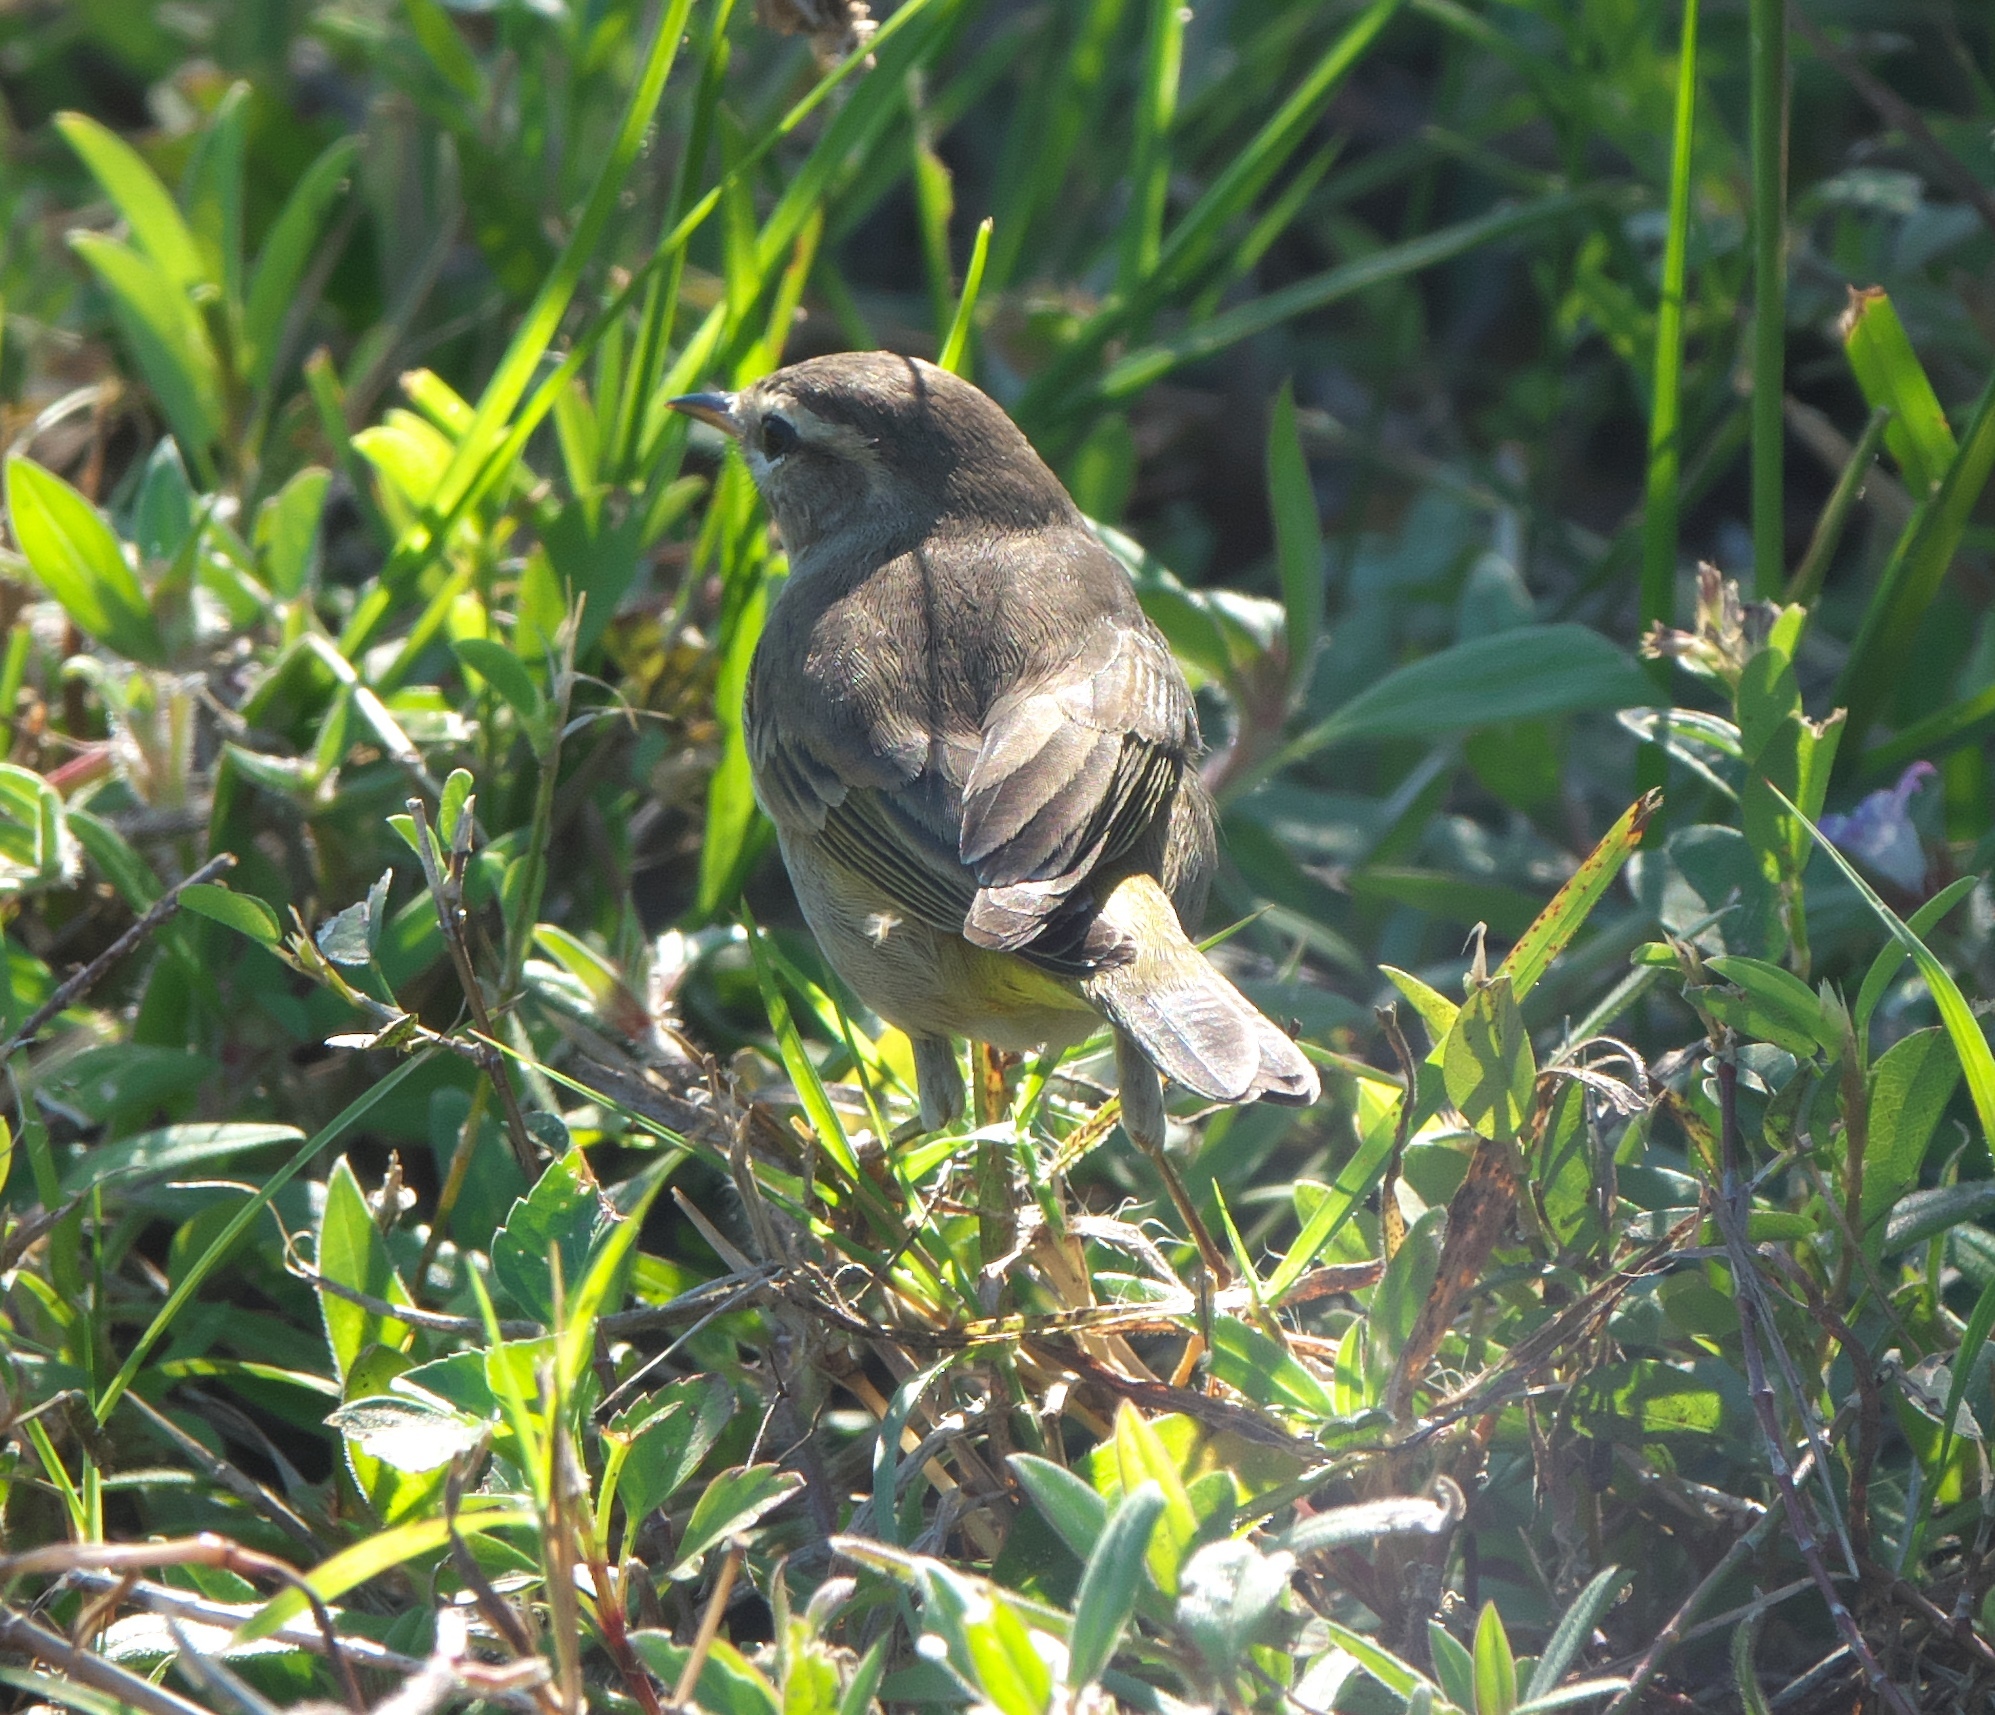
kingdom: Animalia
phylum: Chordata
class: Aves
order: Passeriformes
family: Parulidae
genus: Setophaga
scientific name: Setophaga palmarum
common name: Palm warbler
